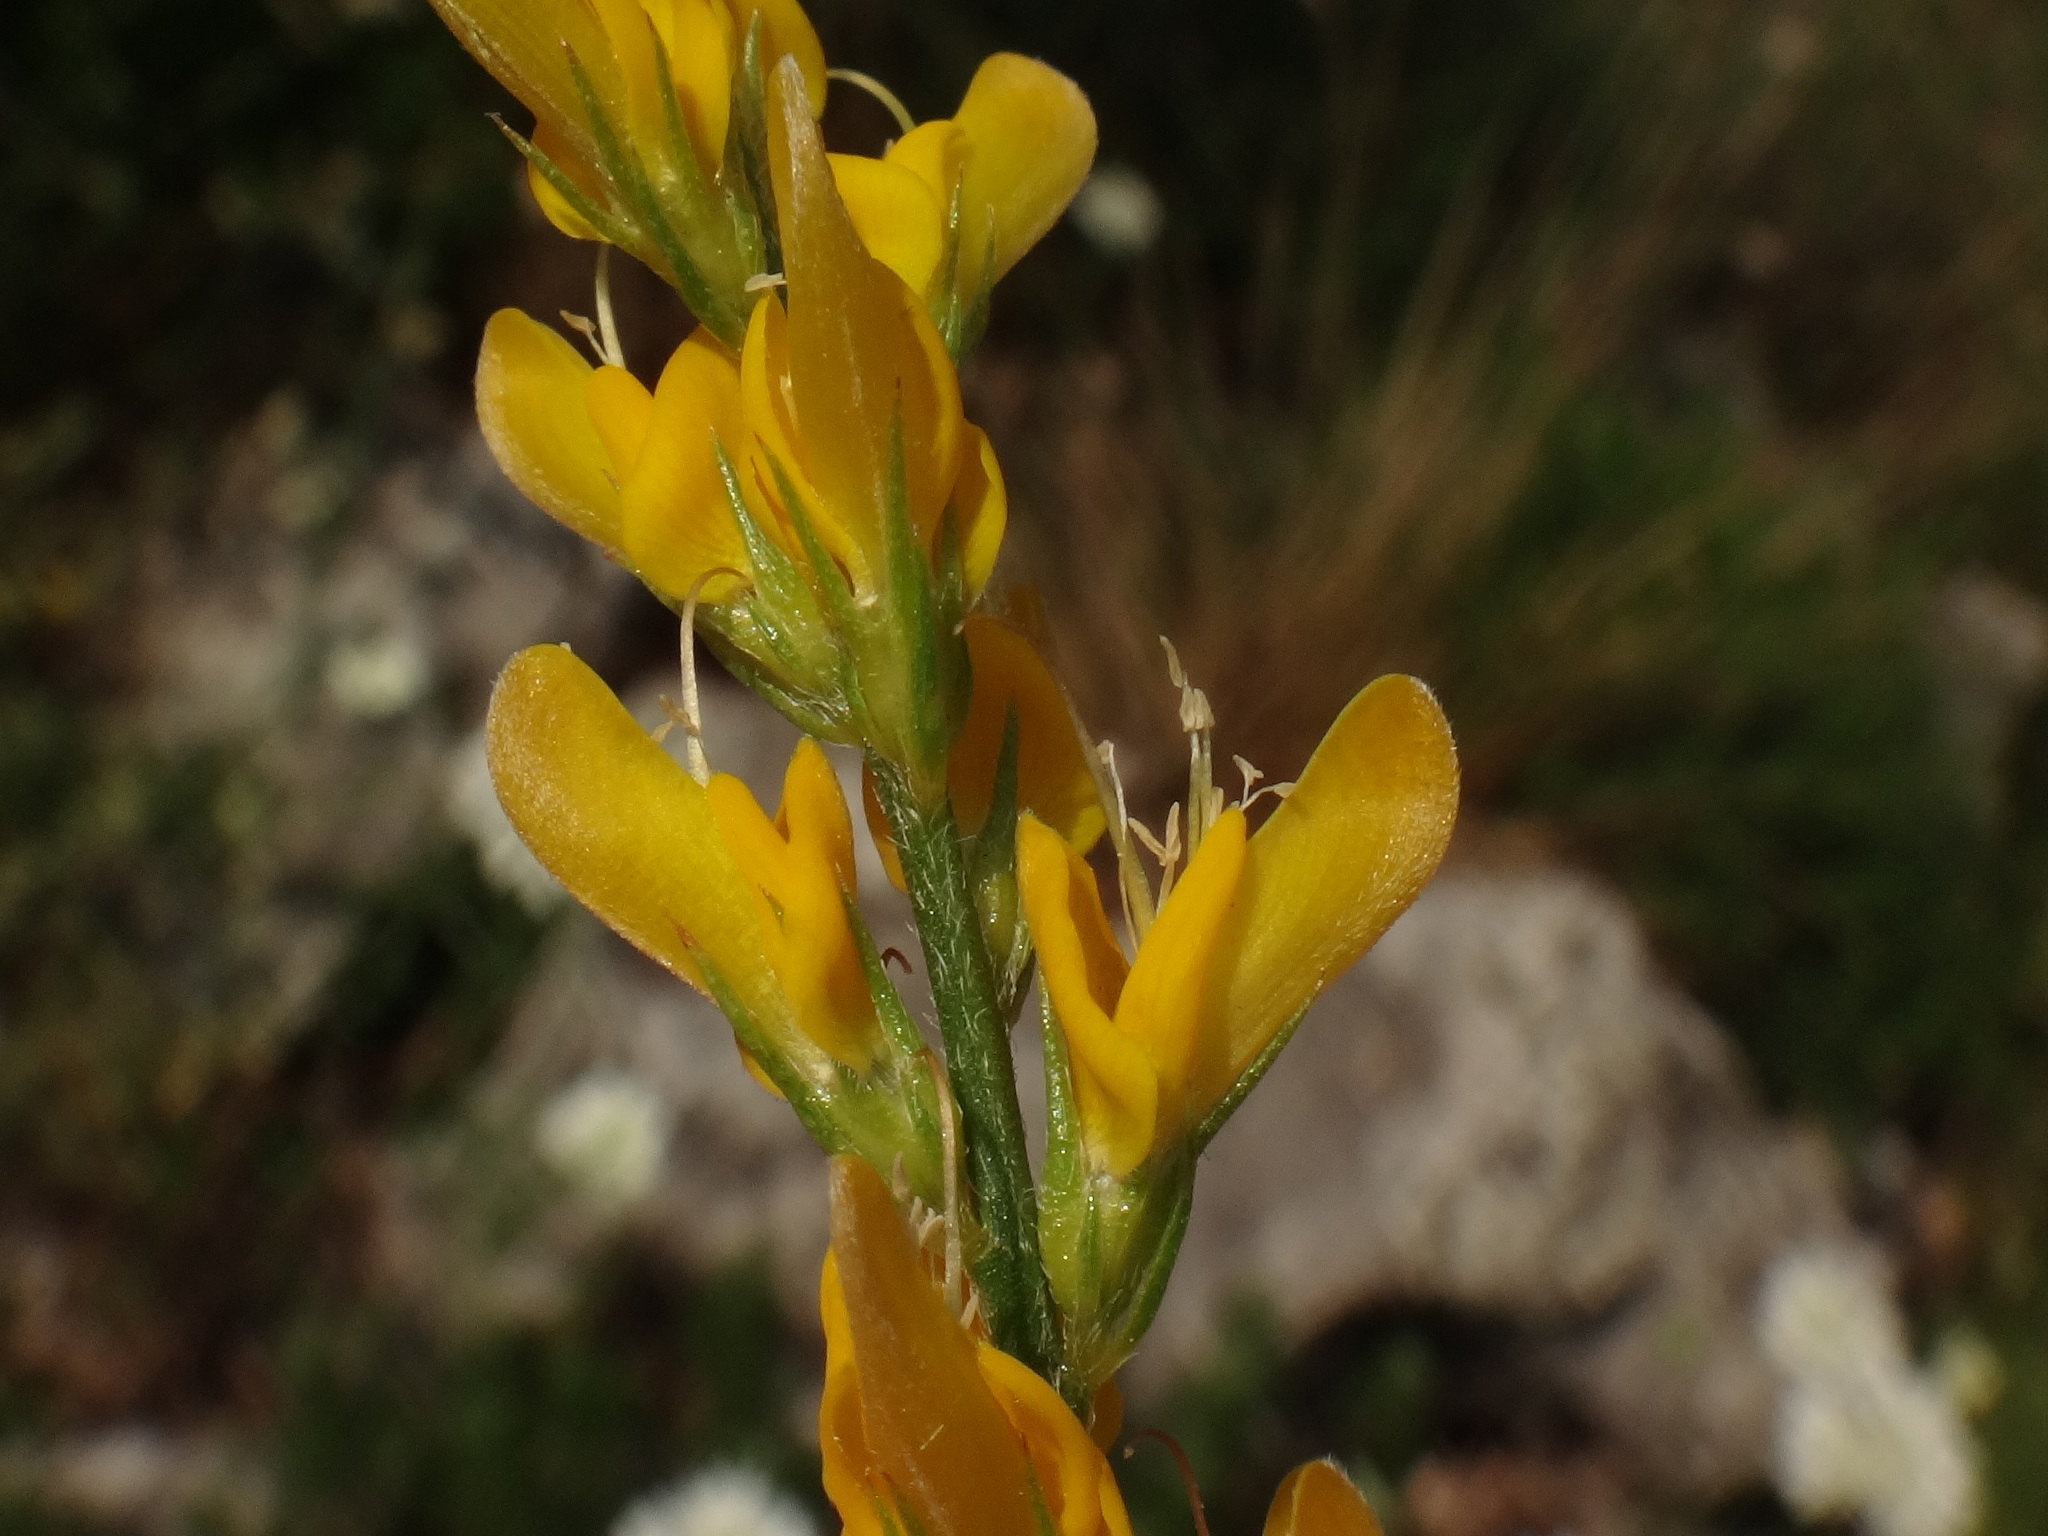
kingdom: Plantae
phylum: Tracheophyta
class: Magnoliopsida
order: Fabales
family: Fabaceae
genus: Genista
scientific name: Genista sylvestris
